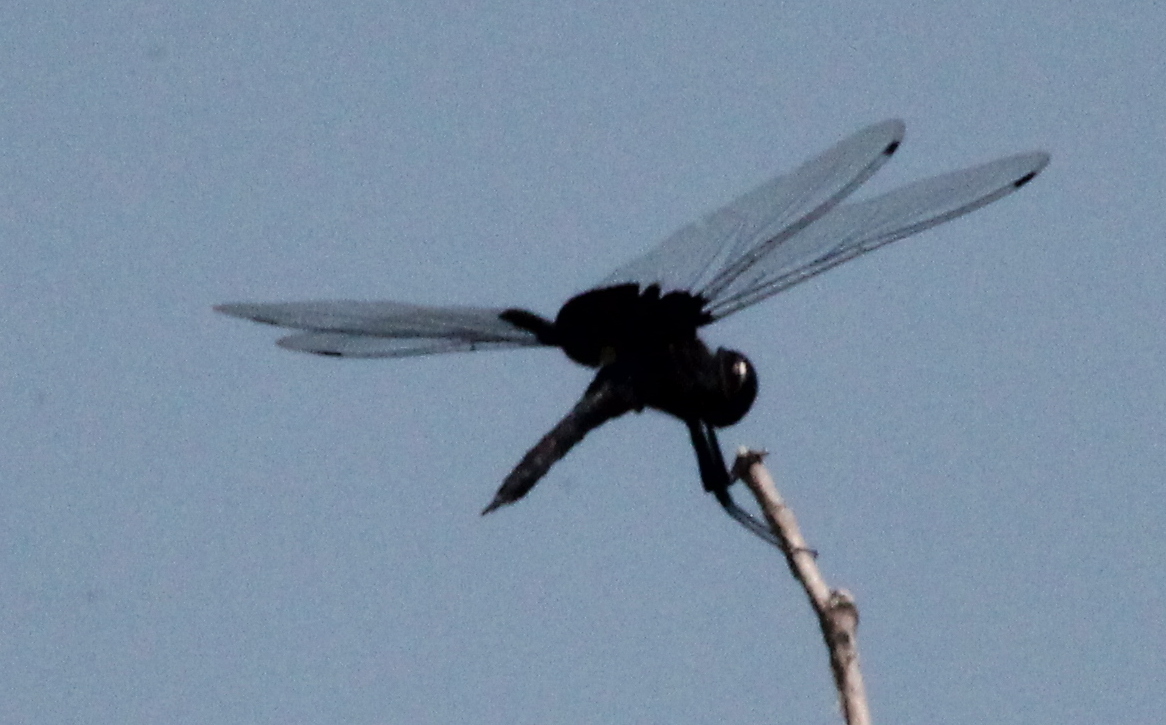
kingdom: Animalia
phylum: Arthropoda
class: Insecta
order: Odonata
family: Libellulidae
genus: Tramea
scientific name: Tramea lacerata
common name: Black saddlebags
